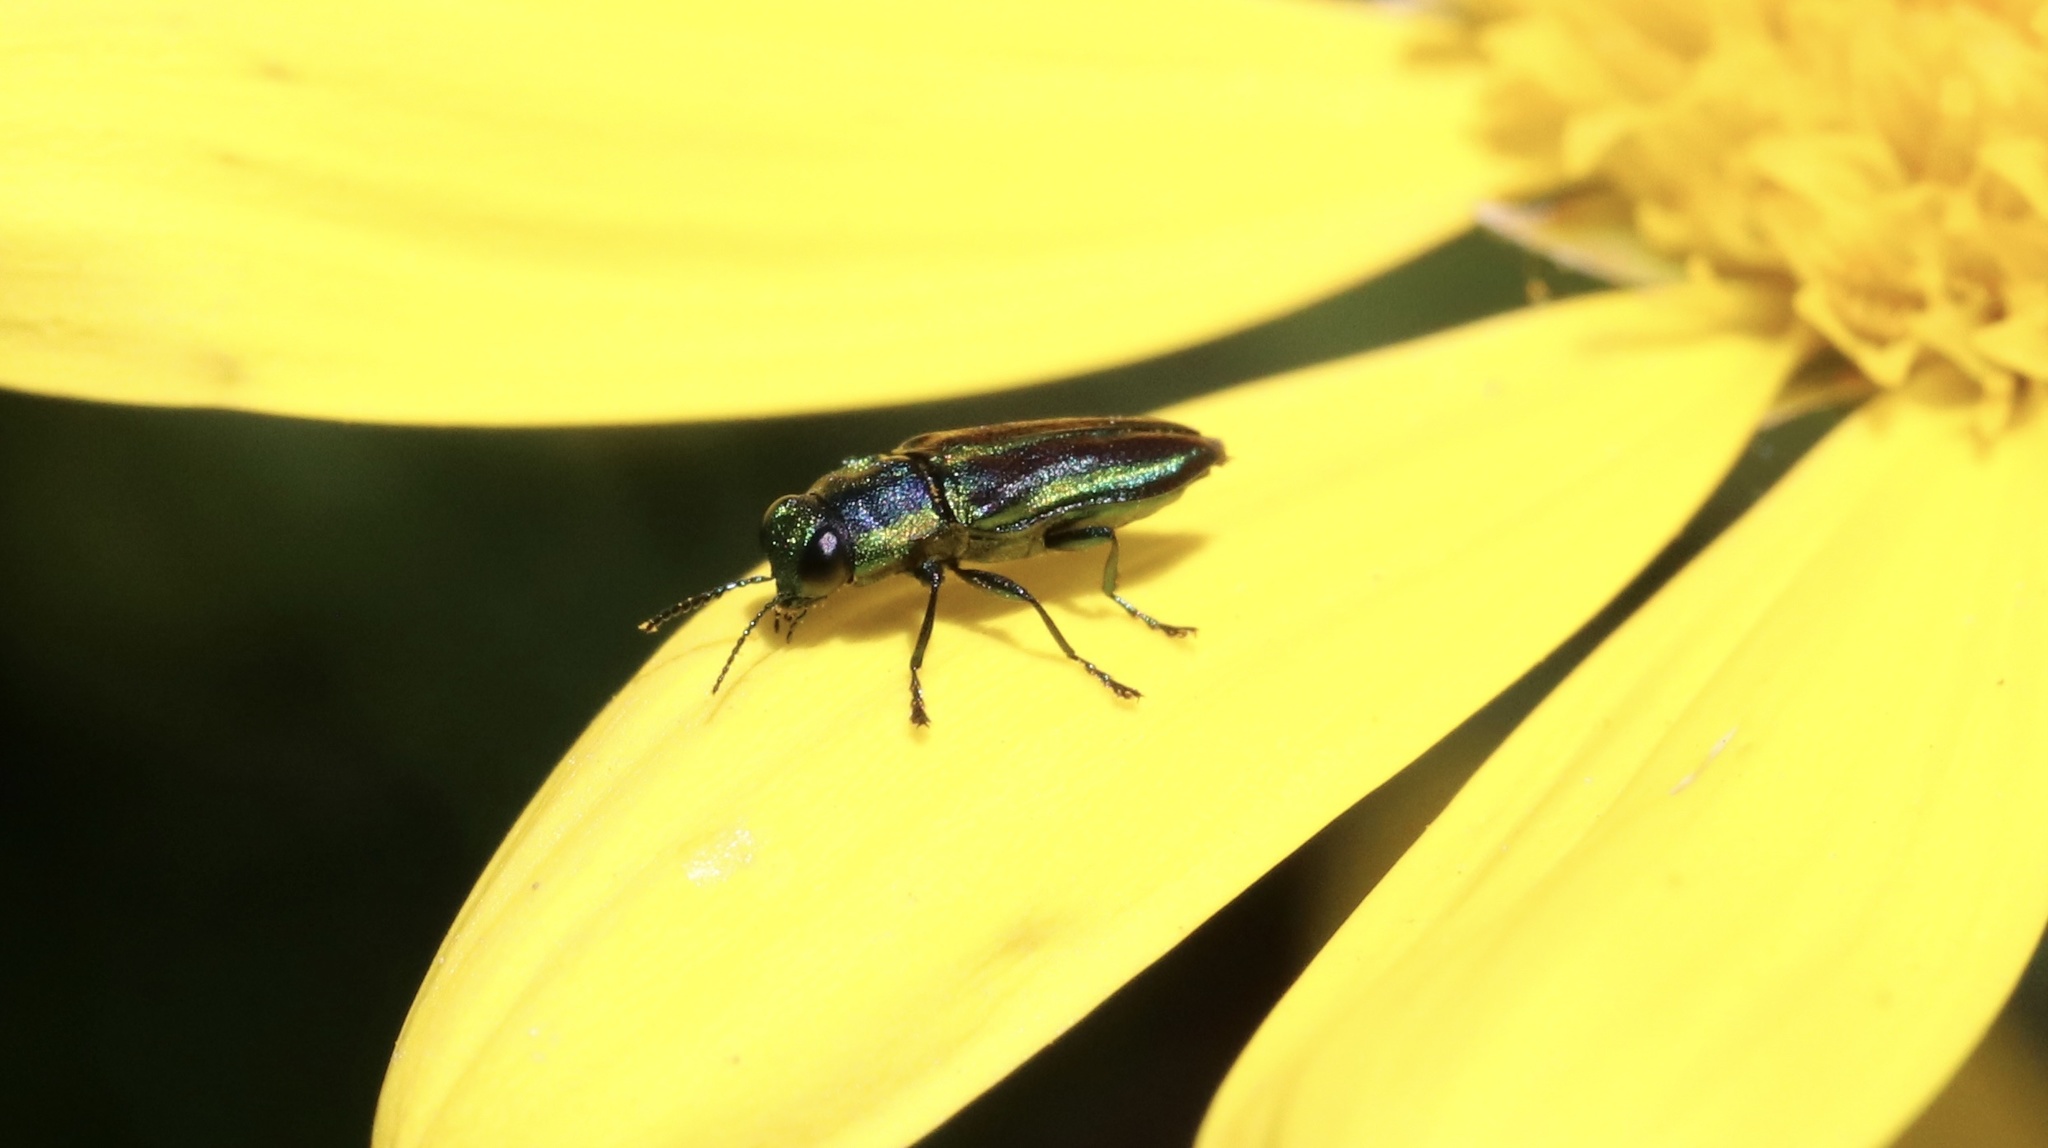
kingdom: Animalia
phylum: Arthropoda
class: Insecta
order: Coleoptera
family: Buprestidae
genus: Bilyaxia
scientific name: Bilyaxia concinna
